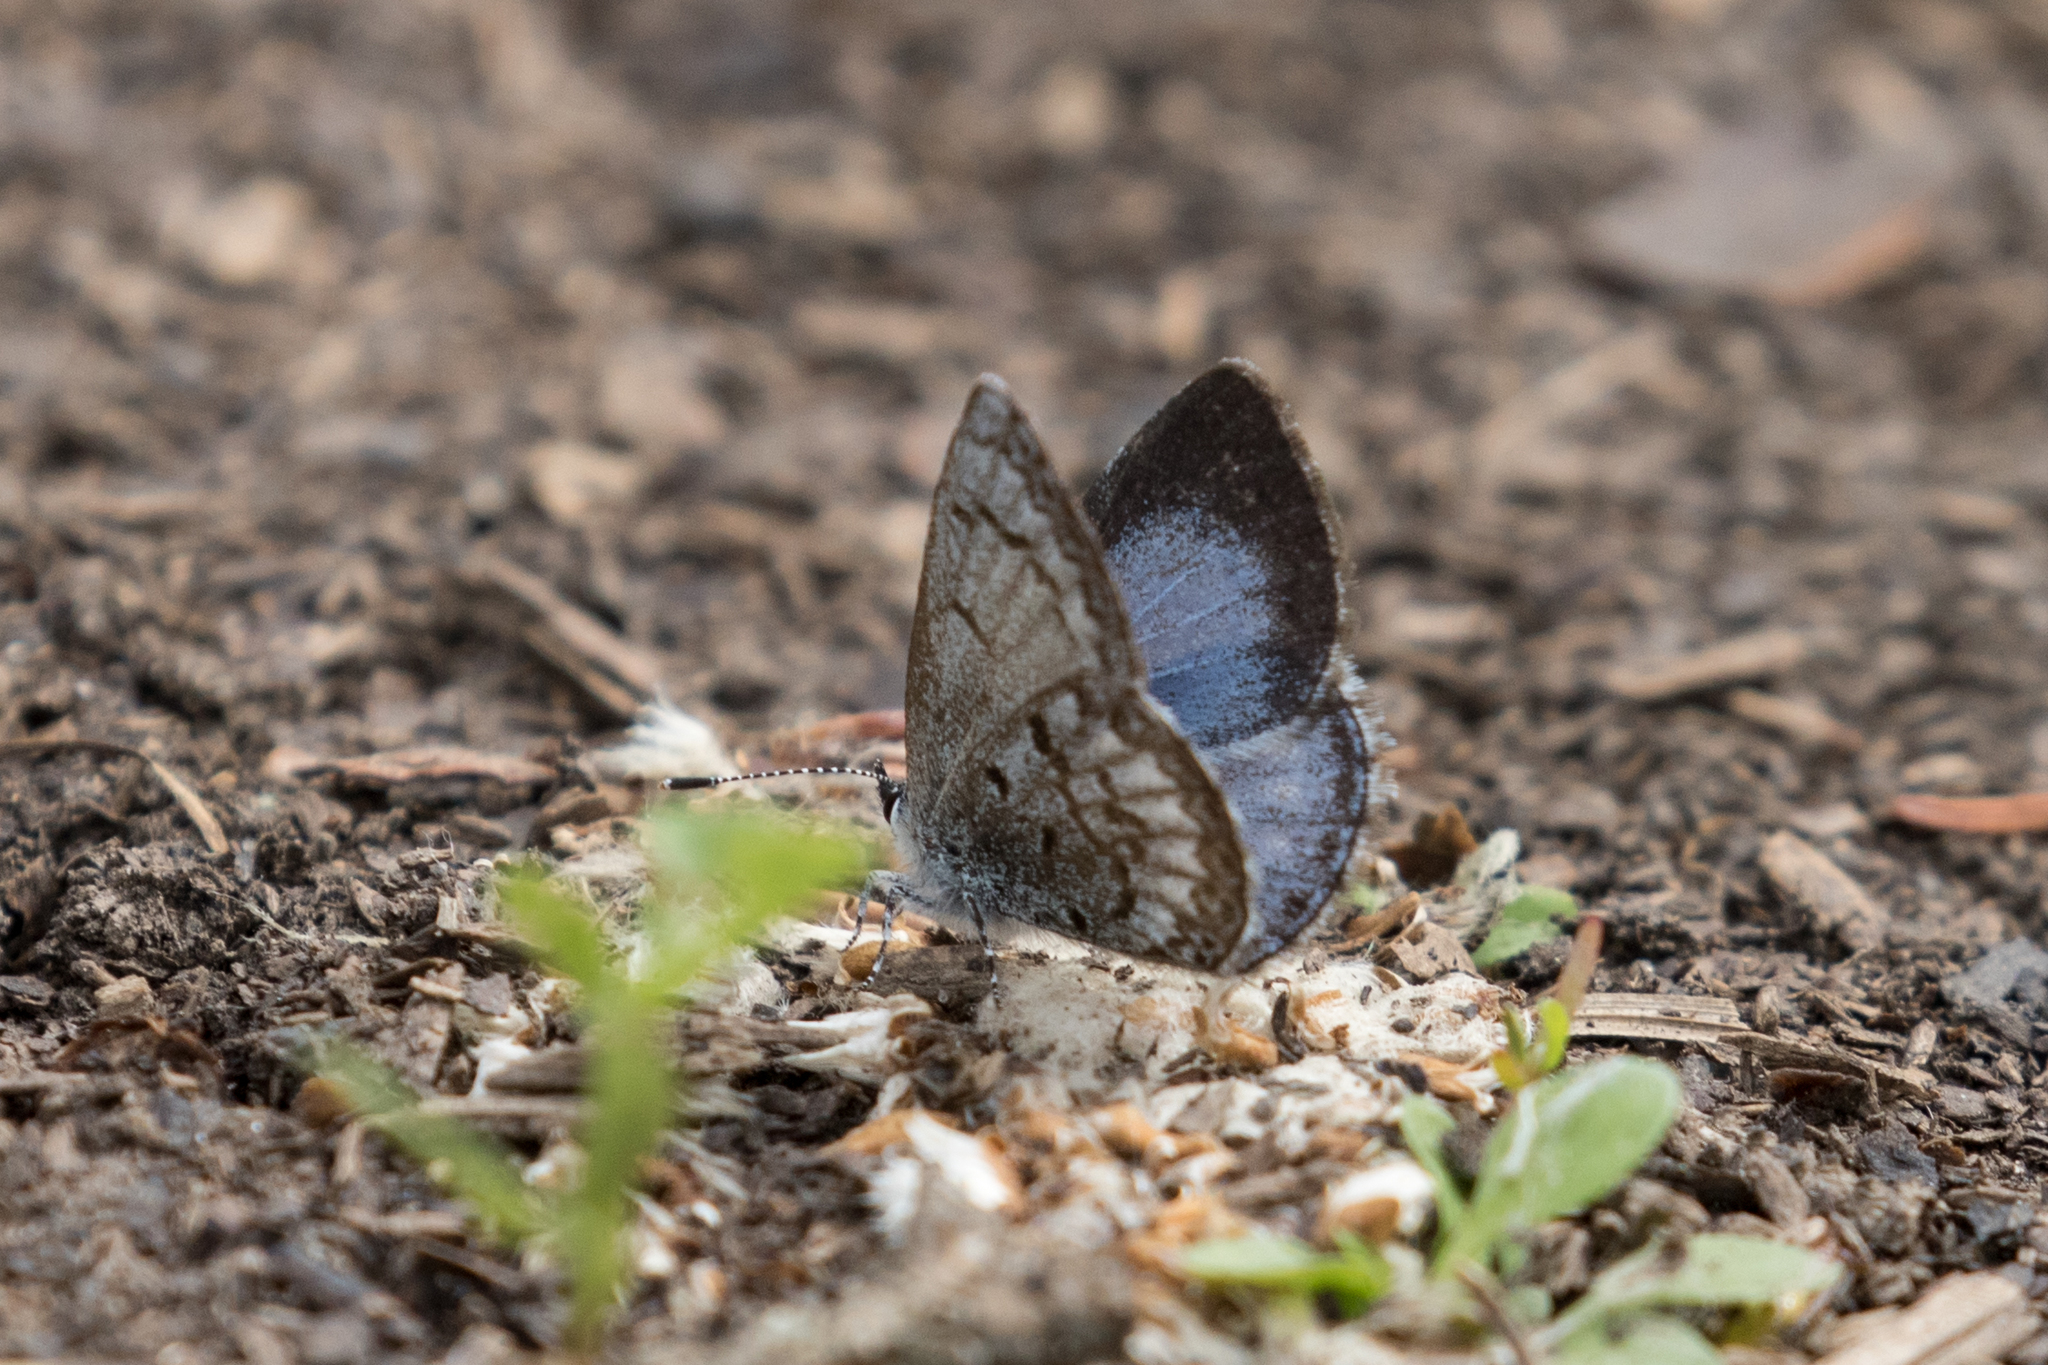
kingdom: Animalia
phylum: Arthropoda
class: Insecta
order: Lepidoptera
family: Lycaenidae
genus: Celastrina
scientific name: Celastrina lucia
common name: Lucia azure
